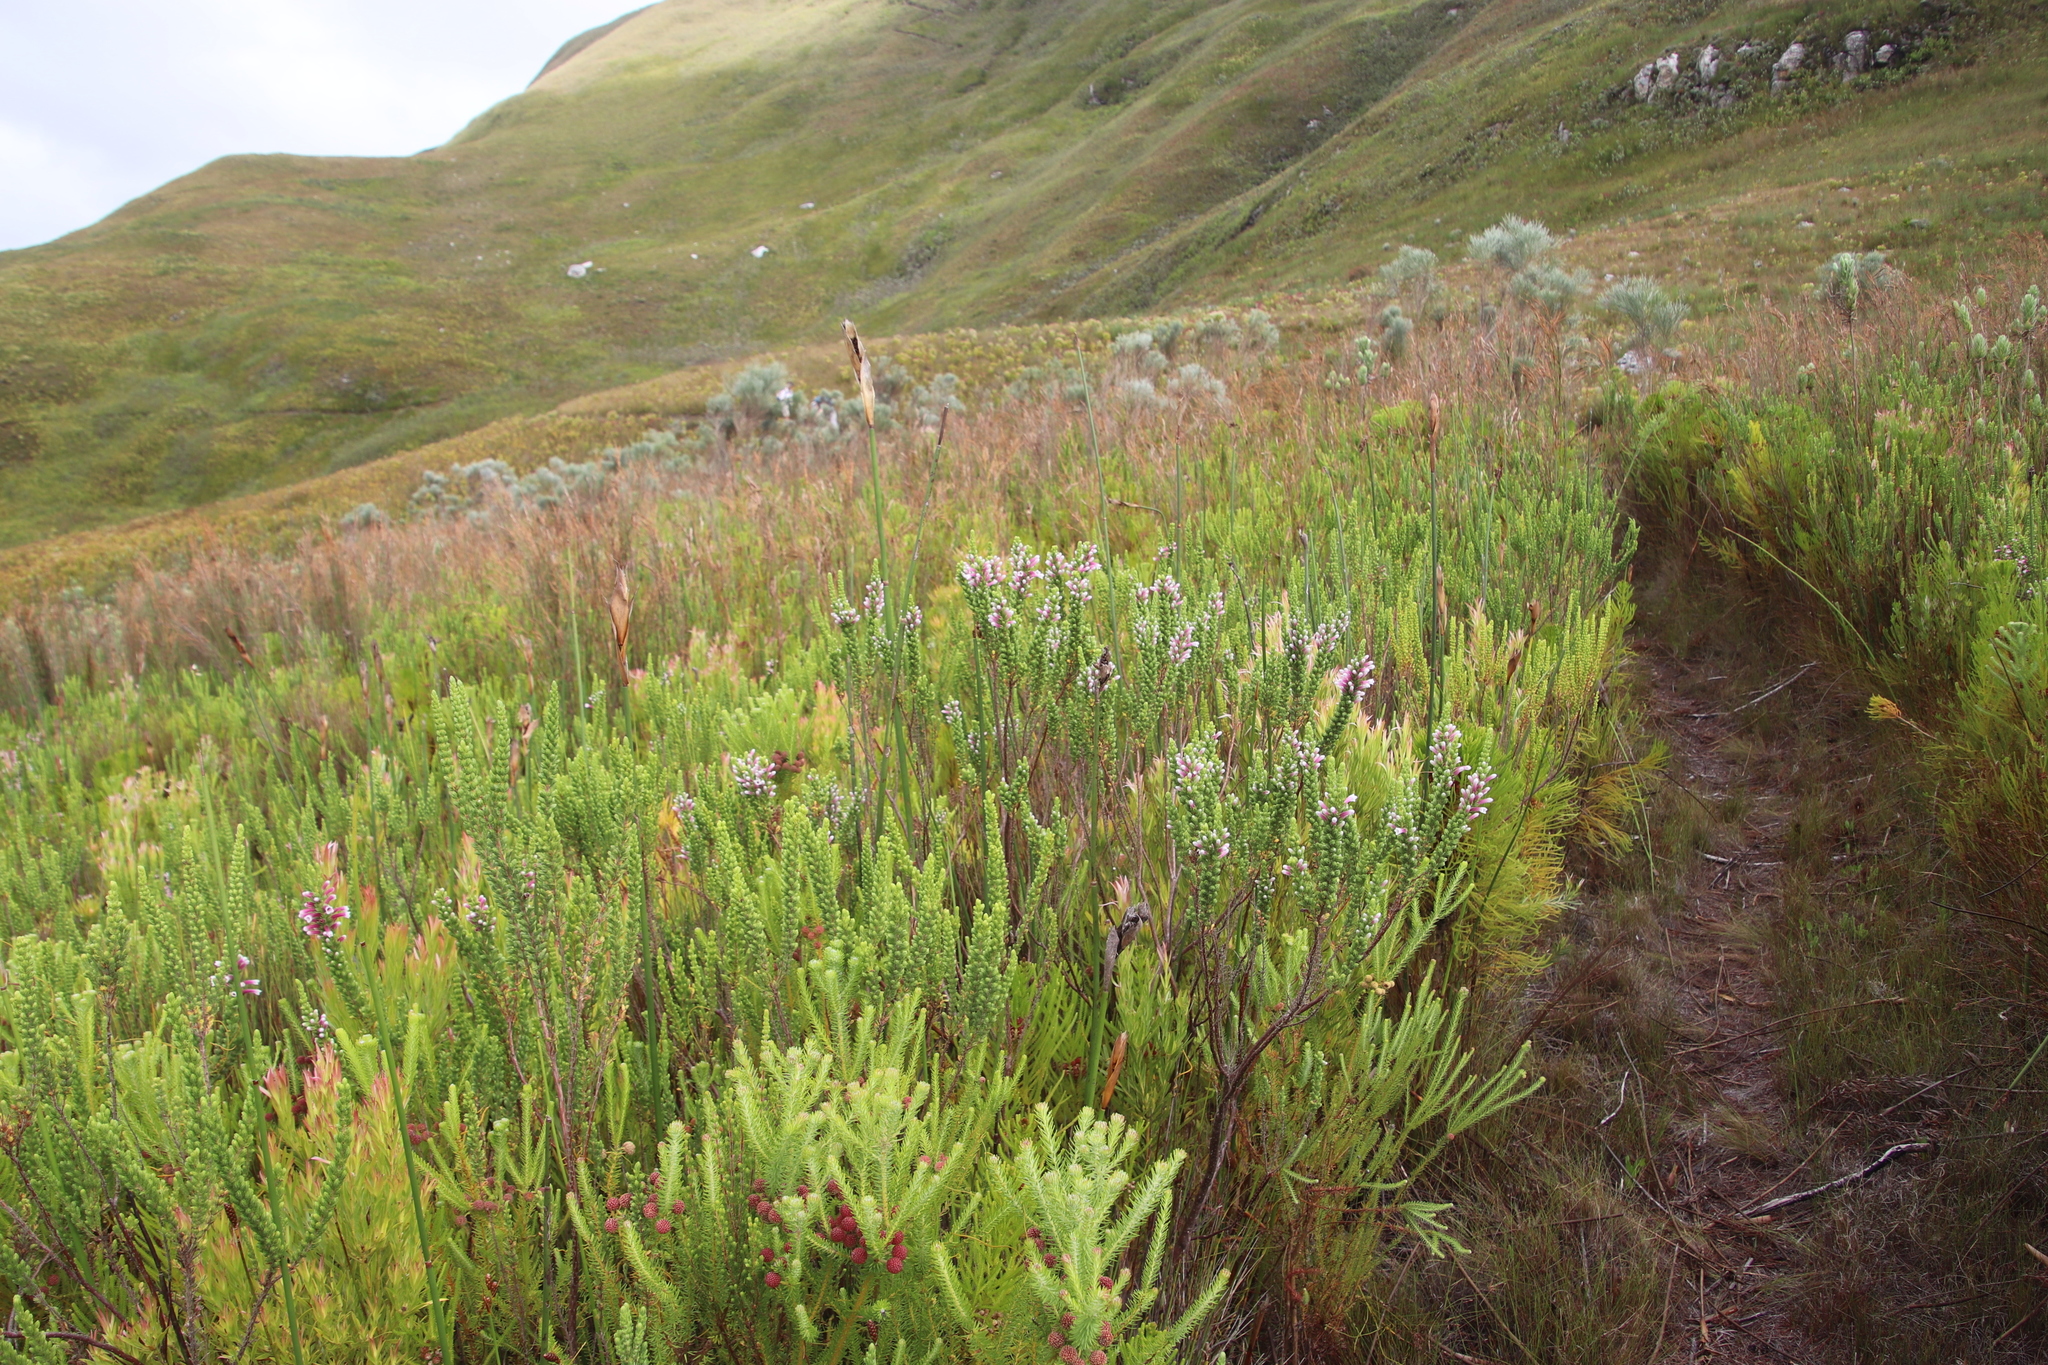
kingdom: Plantae
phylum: Tracheophyta
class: Magnoliopsida
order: Ericales
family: Ericaceae
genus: Erica
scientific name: Erica macowanii
